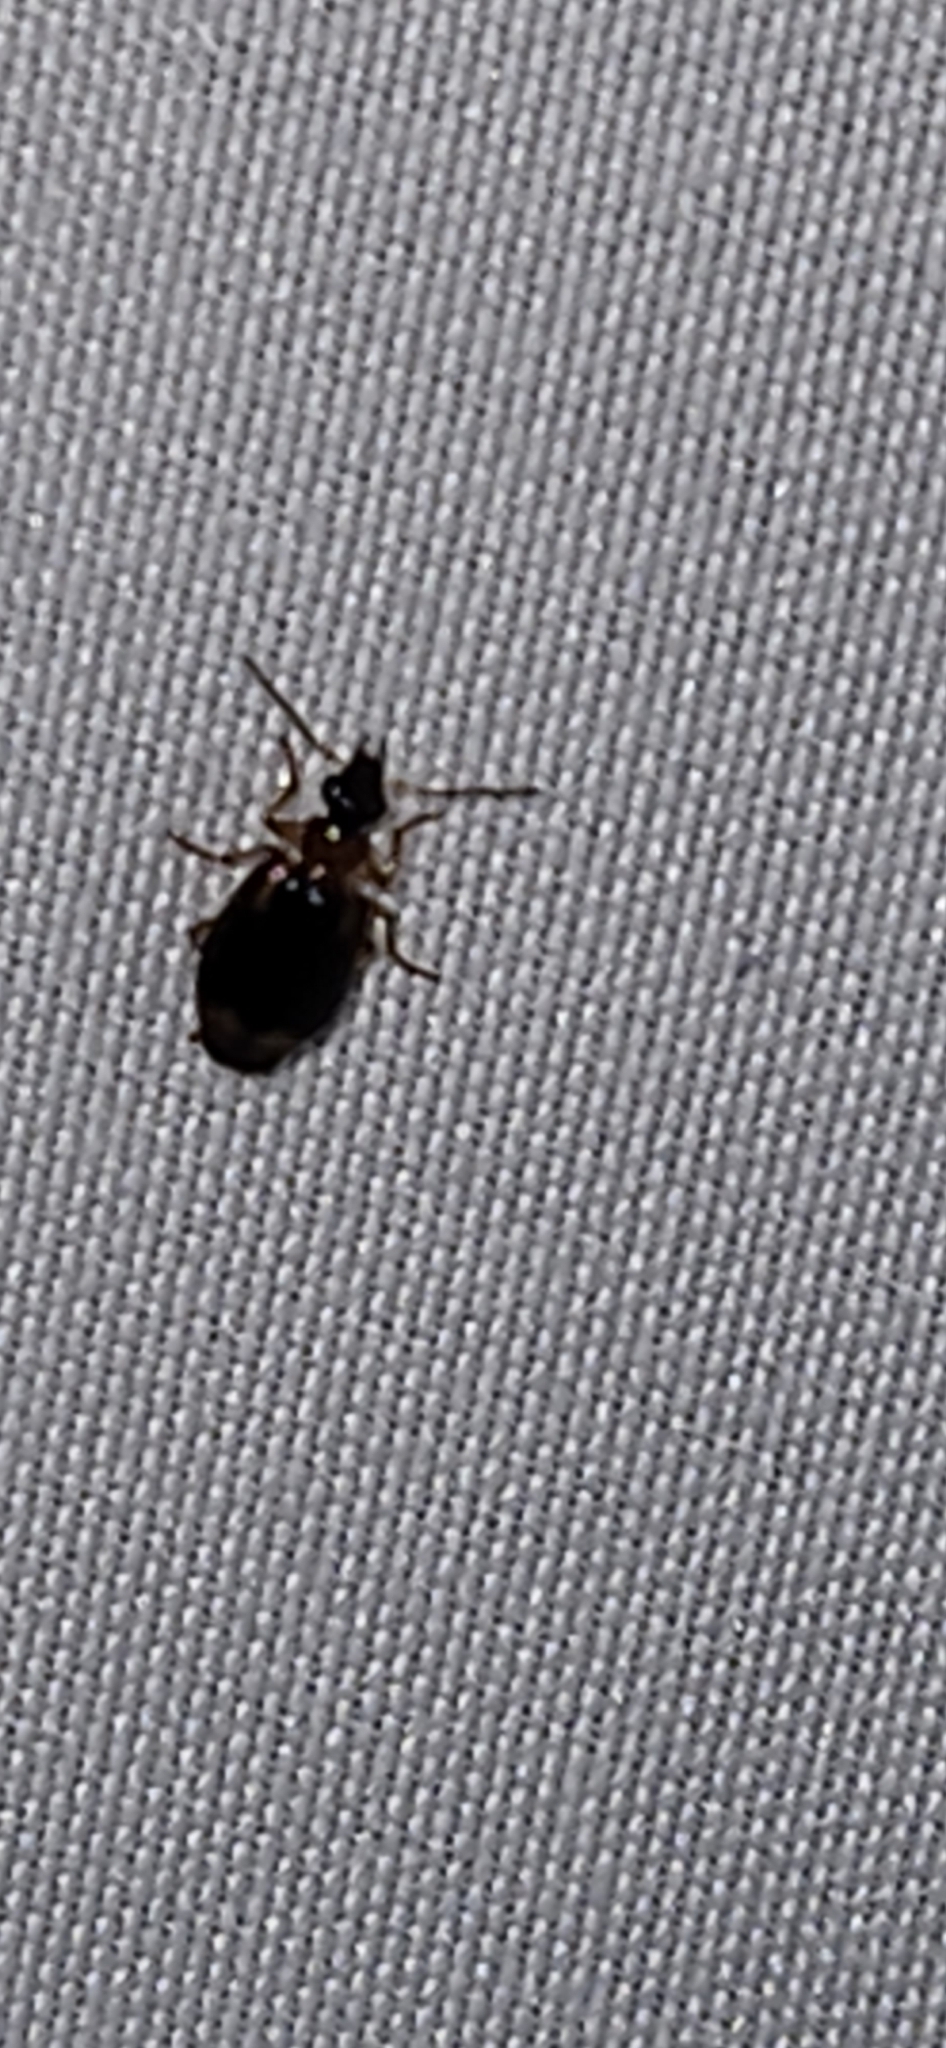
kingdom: Animalia
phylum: Arthropoda
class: Insecta
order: Coleoptera
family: Carabidae
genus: Lebia
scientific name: Lebia analis
